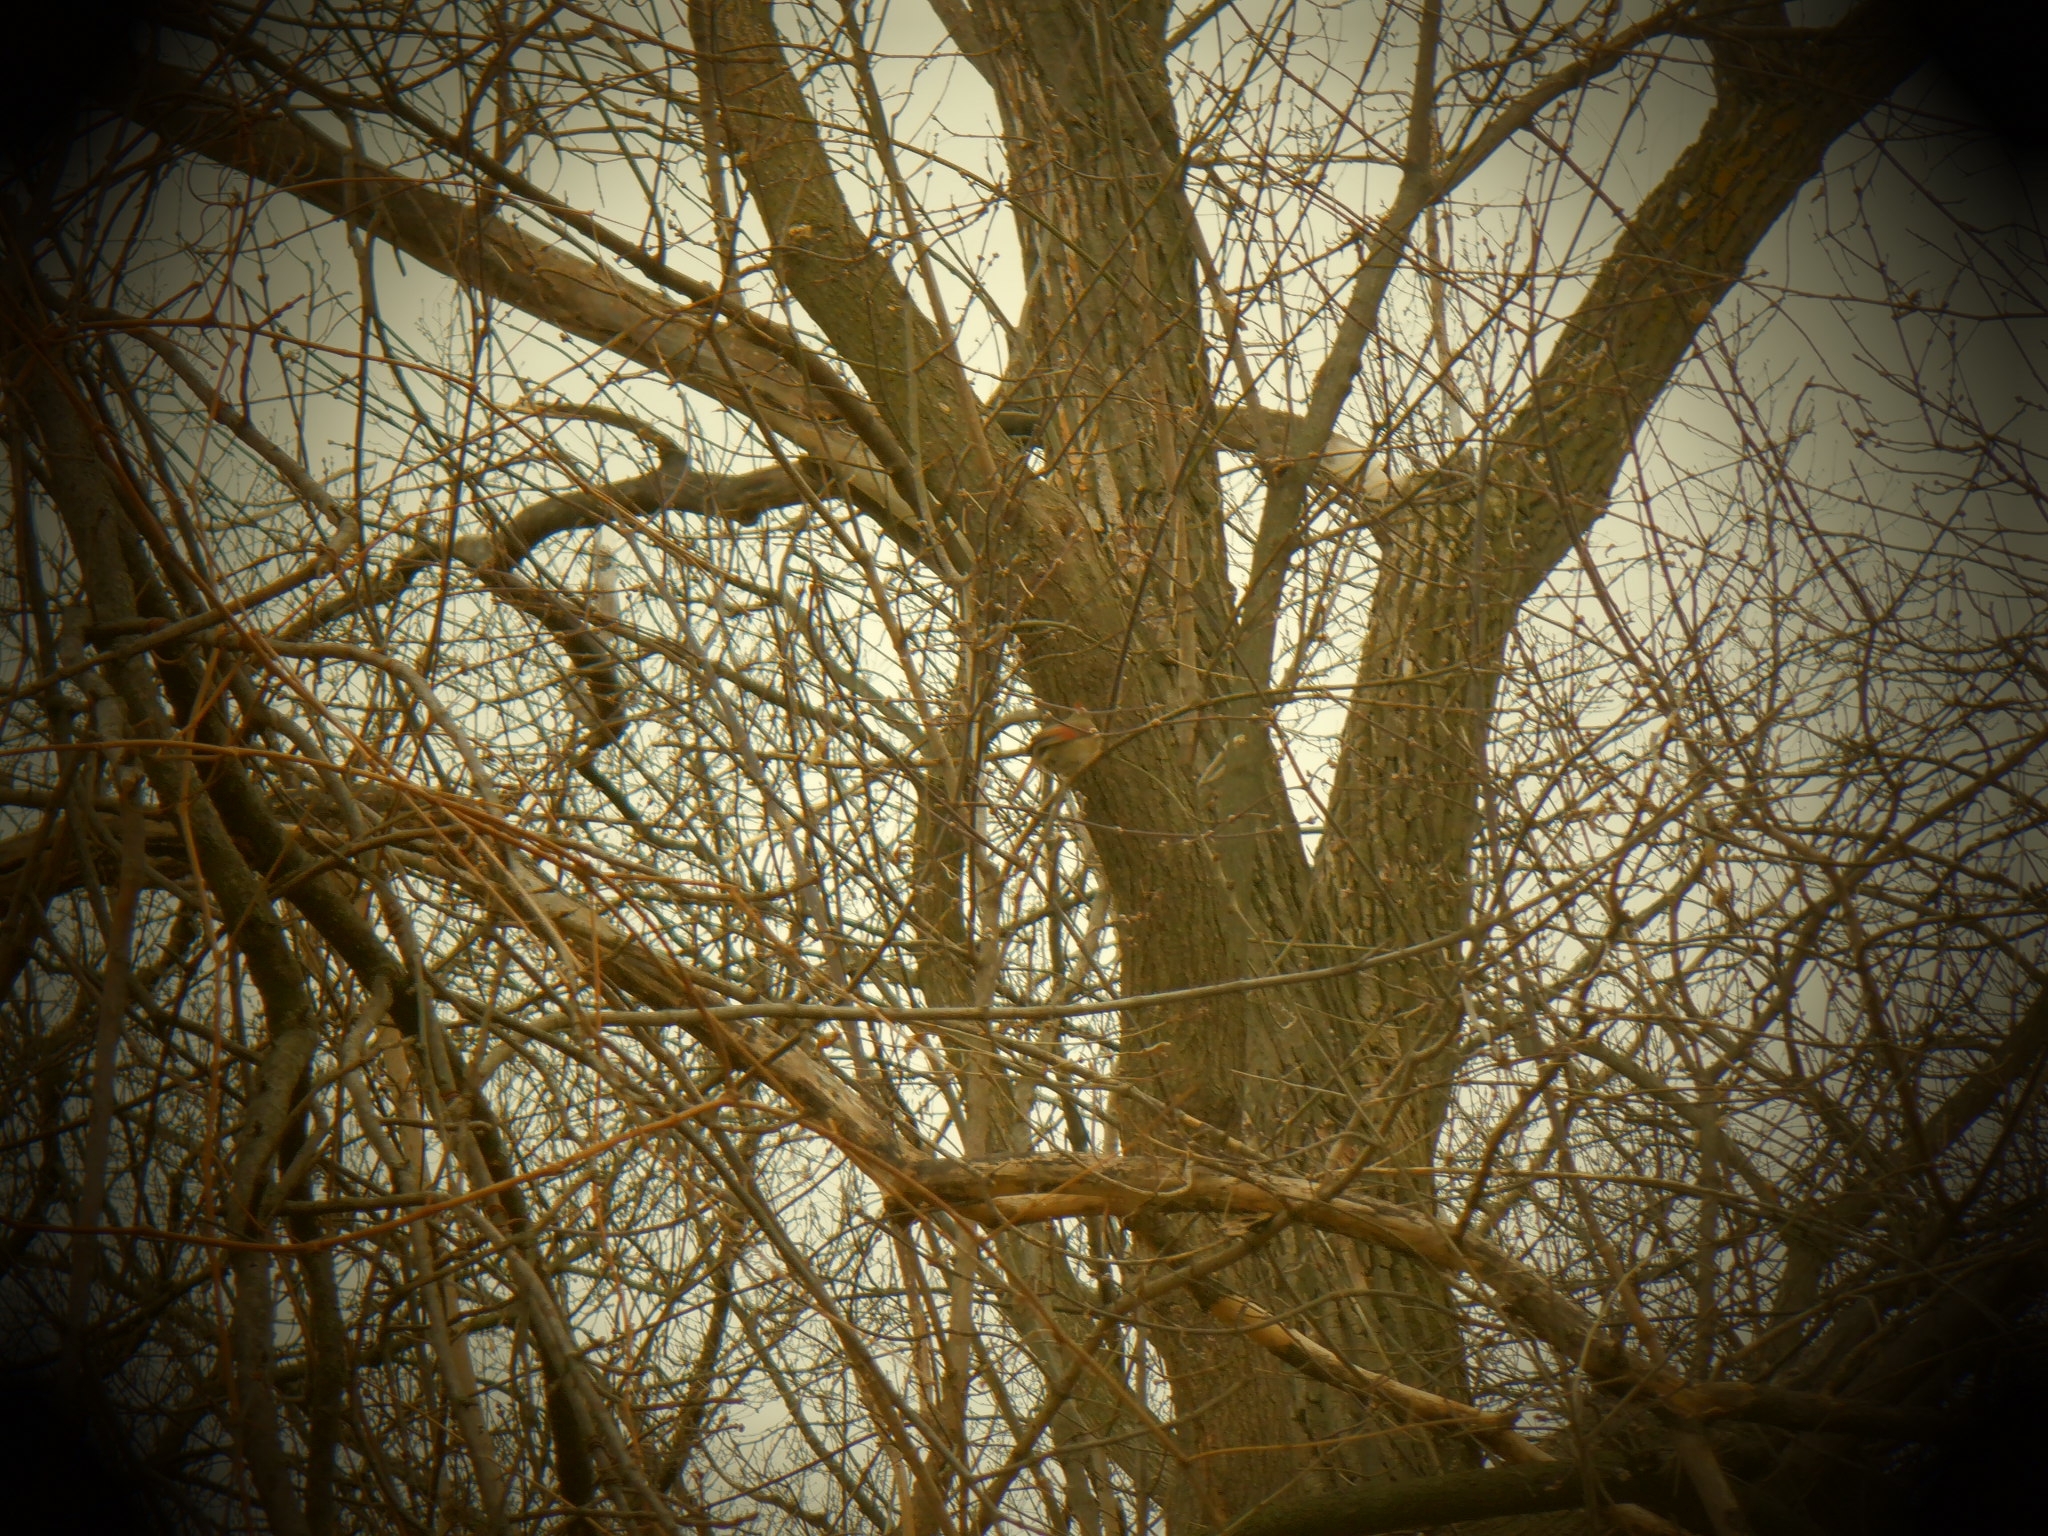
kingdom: Animalia
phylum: Chordata
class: Aves
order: Passeriformes
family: Cardinalidae
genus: Cardinalis
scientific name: Cardinalis cardinalis
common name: Northern cardinal
